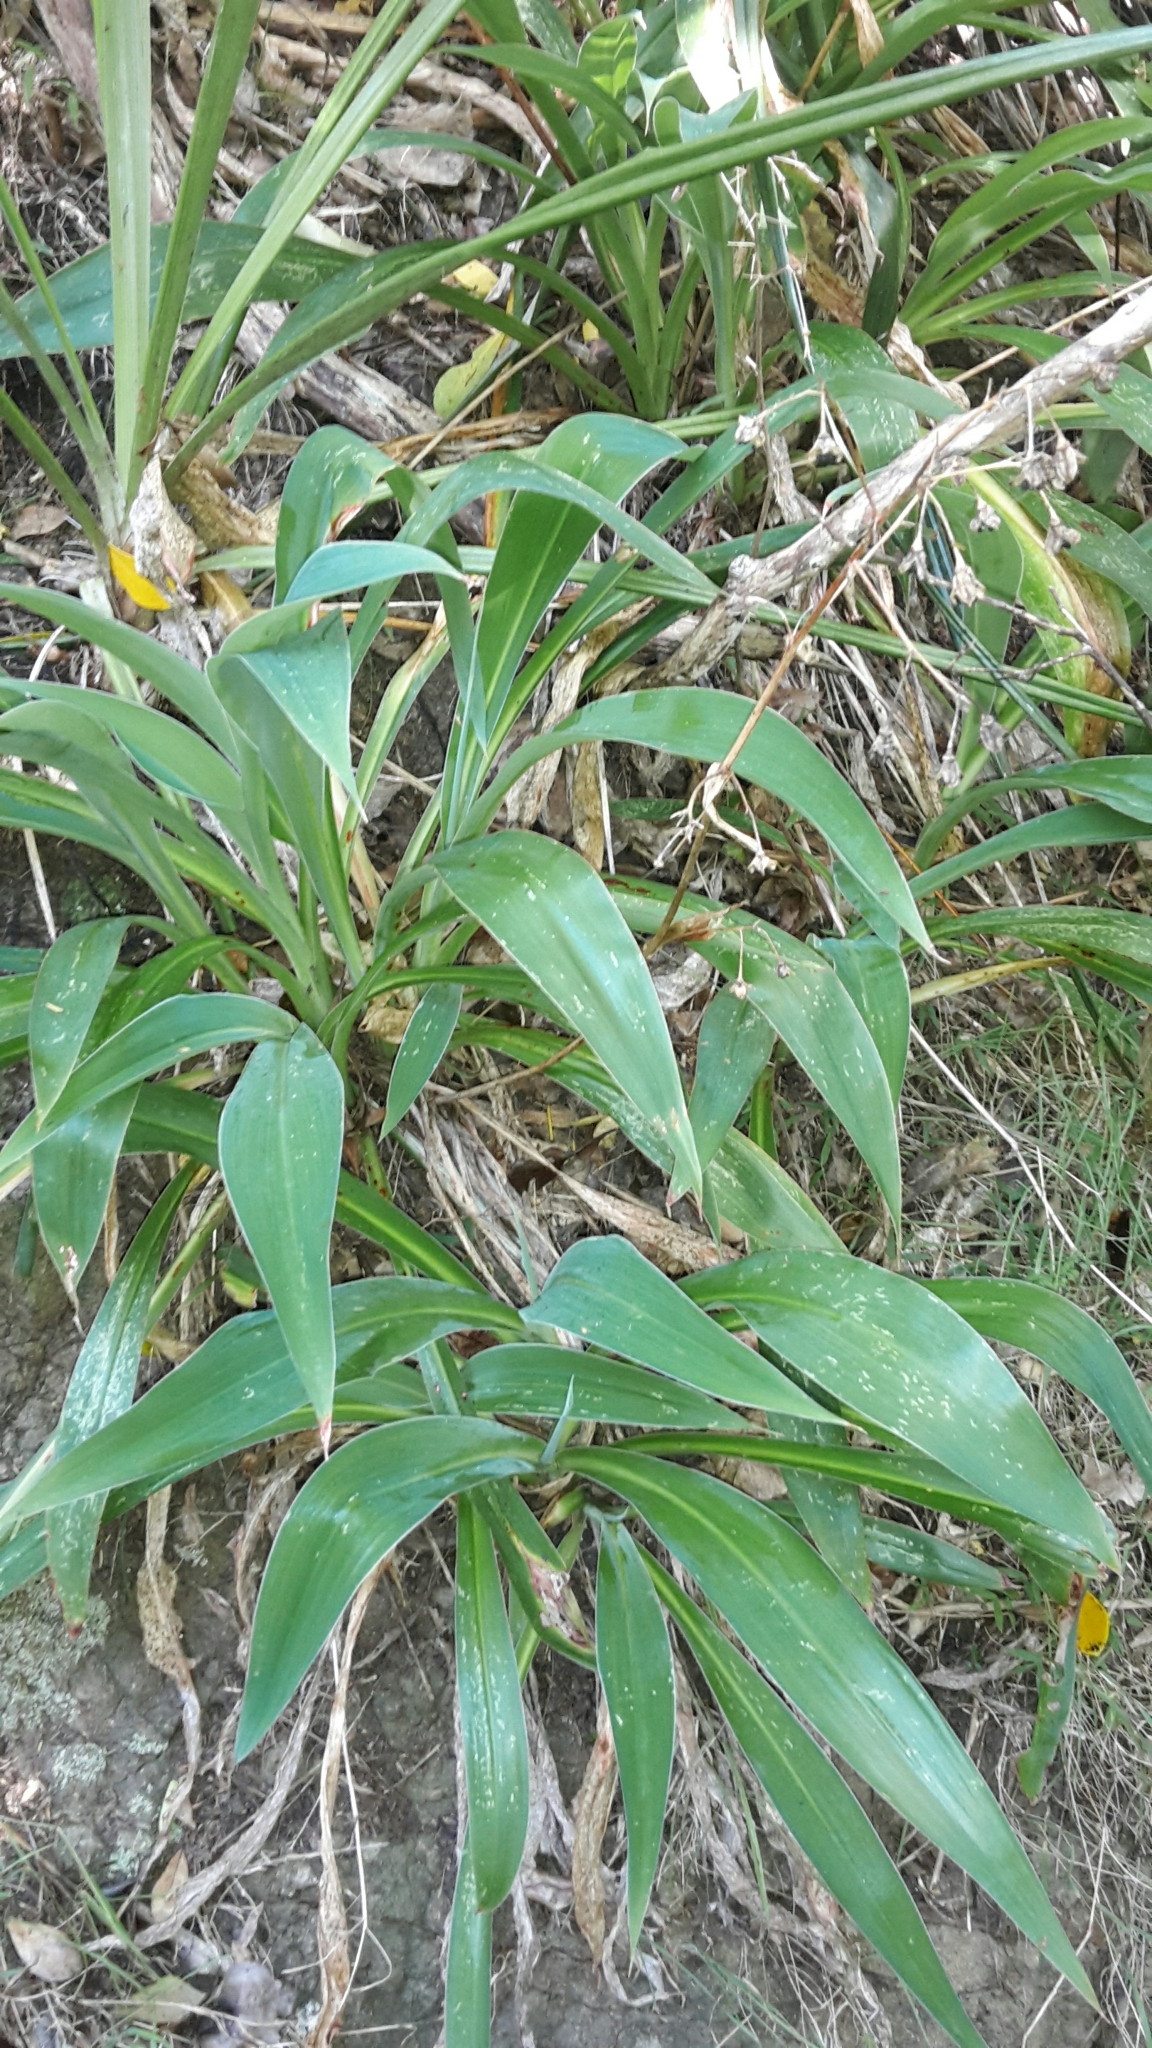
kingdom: Plantae
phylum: Tracheophyta
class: Liliopsida
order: Asparagales
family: Asparagaceae
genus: Arthropodium
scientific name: Arthropodium cirratum
